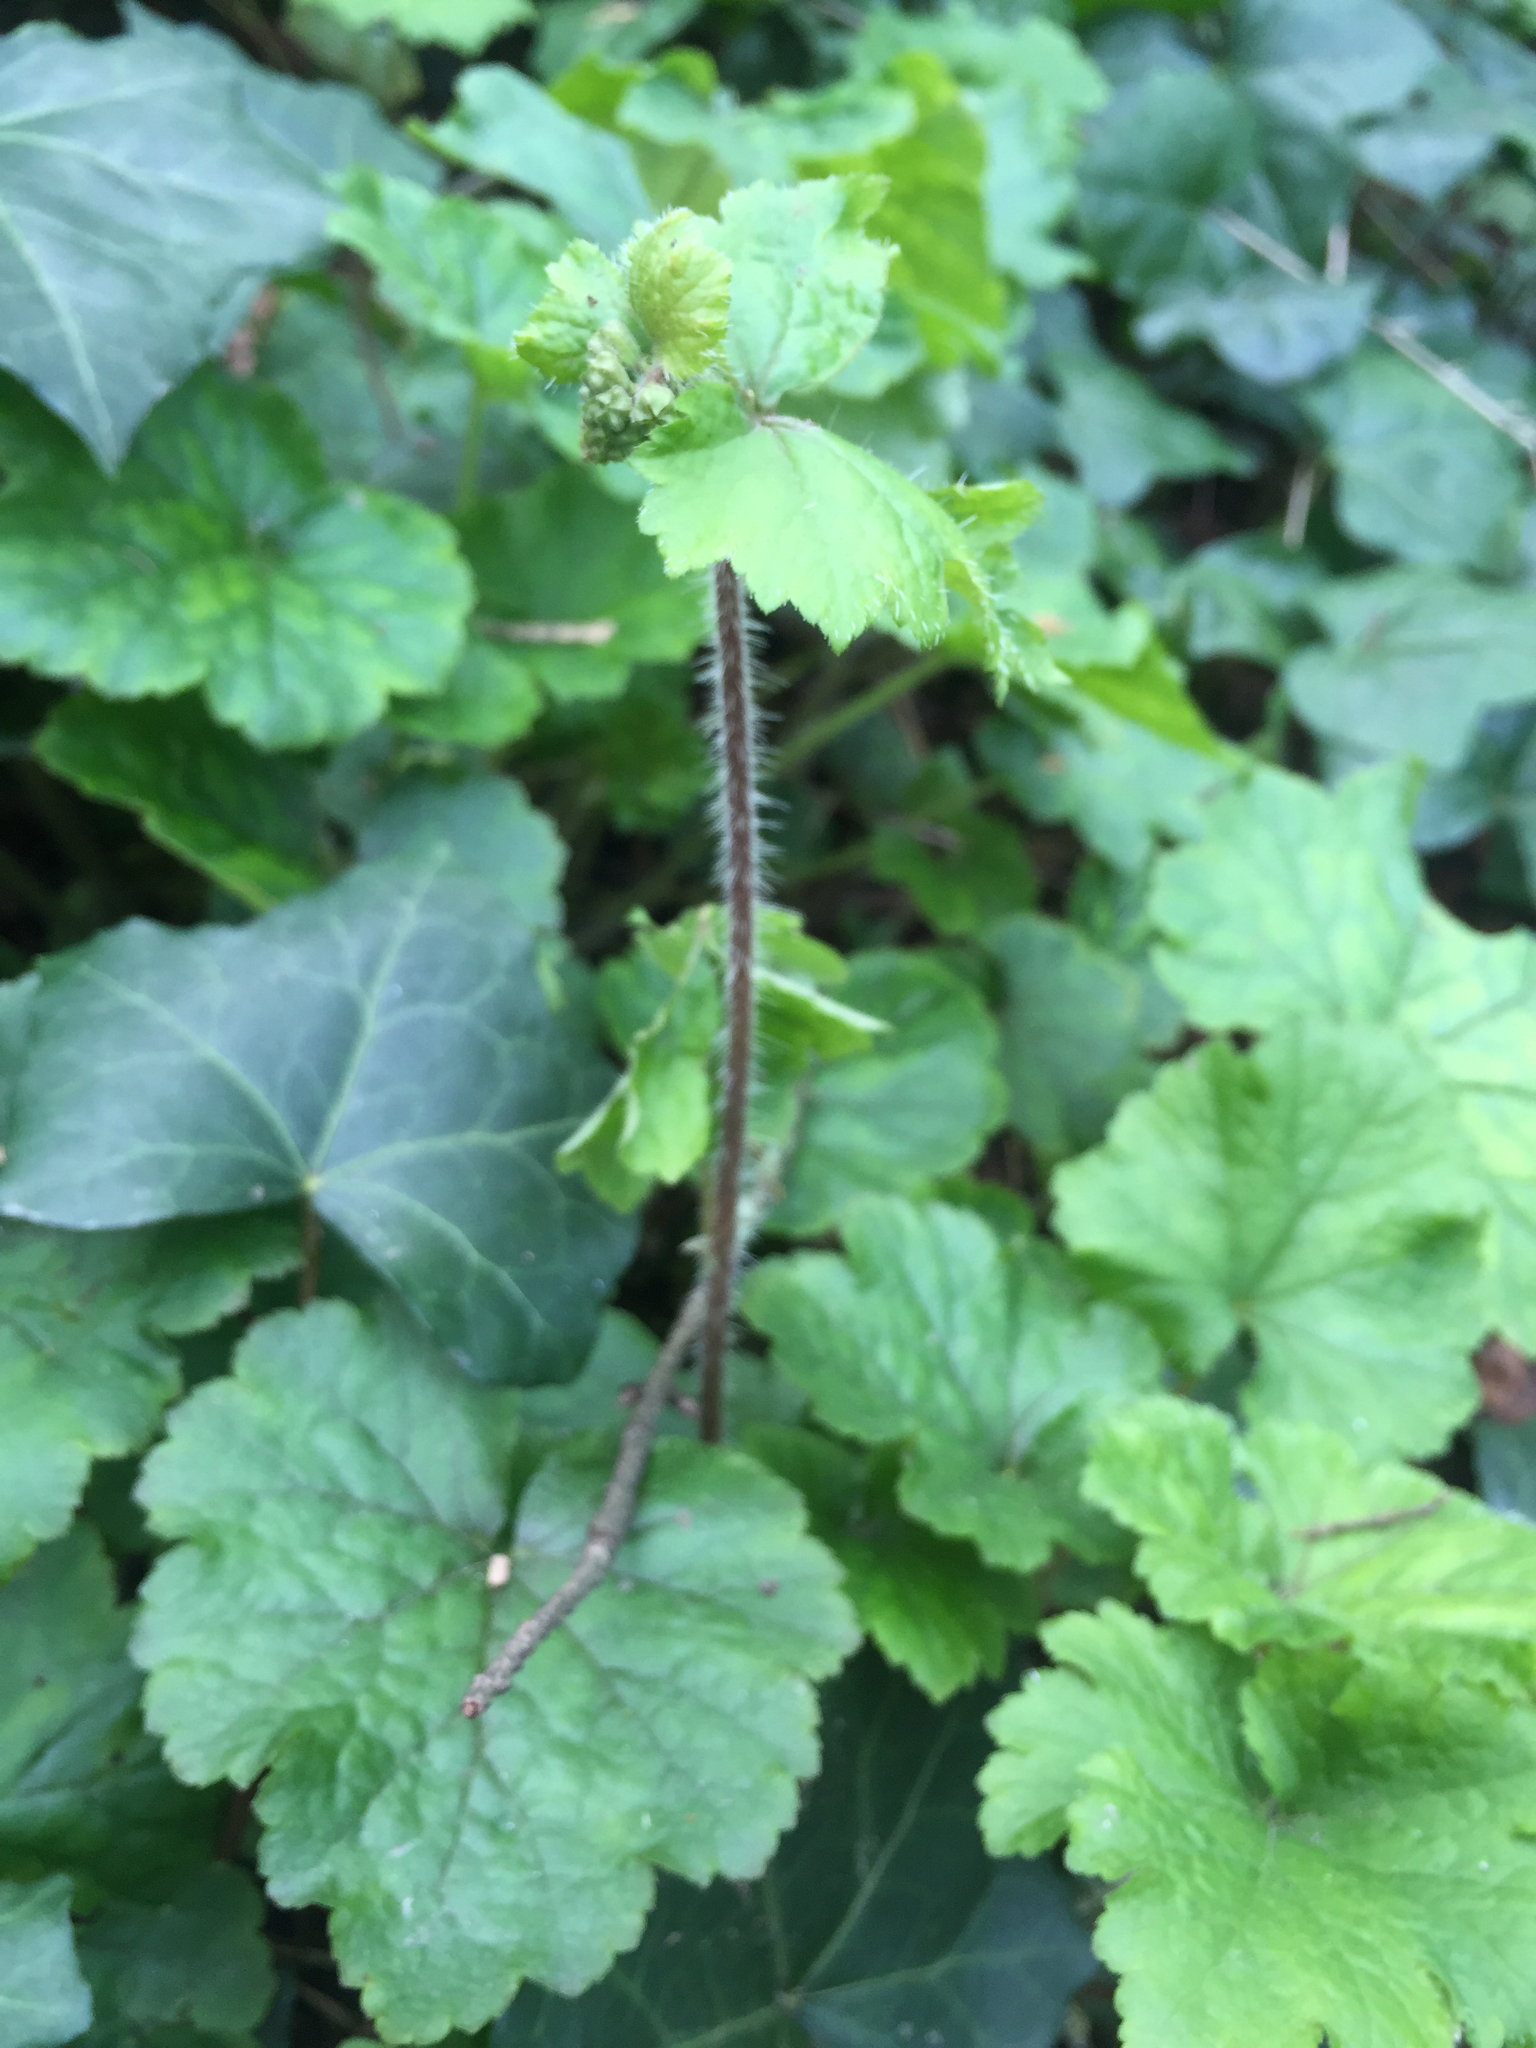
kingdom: Plantae
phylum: Tracheophyta
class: Magnoliopsida
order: Saxifragales
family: Saxifragaceae
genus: Tellima
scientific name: Tellima grandiflora
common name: Fringecups
